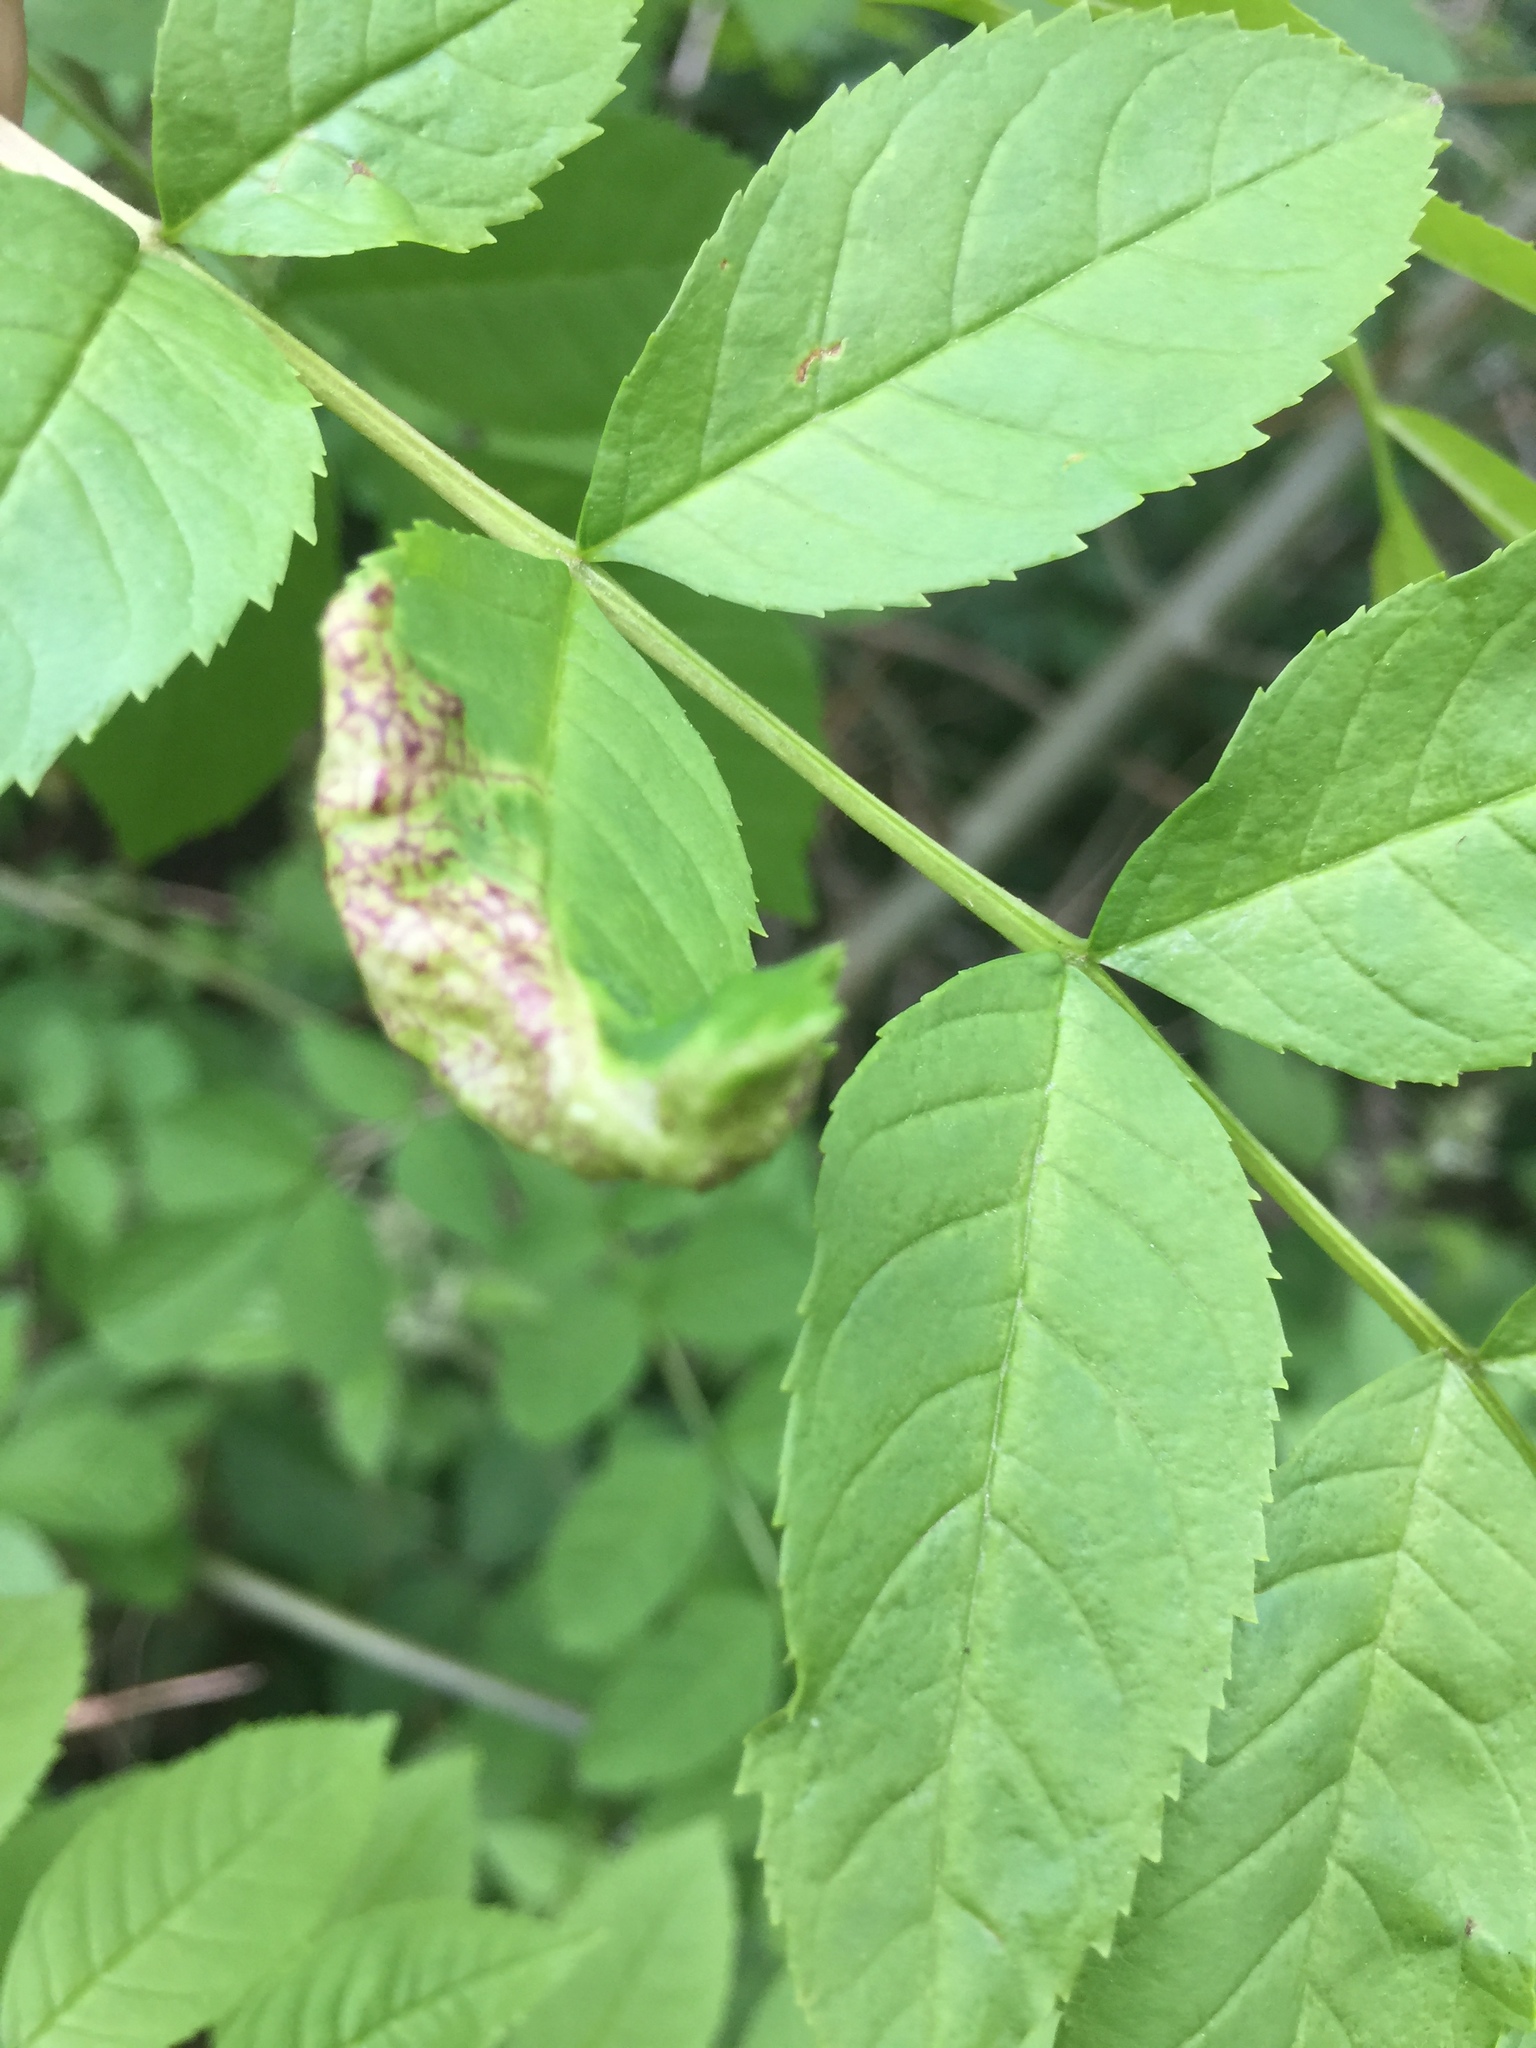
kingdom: Animalia
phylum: Arthropoda
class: Insecta
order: Hemiptera
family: Liviidae
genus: Psyllopsis
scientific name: Psyllopsis fraxini
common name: Jumping plant louse
